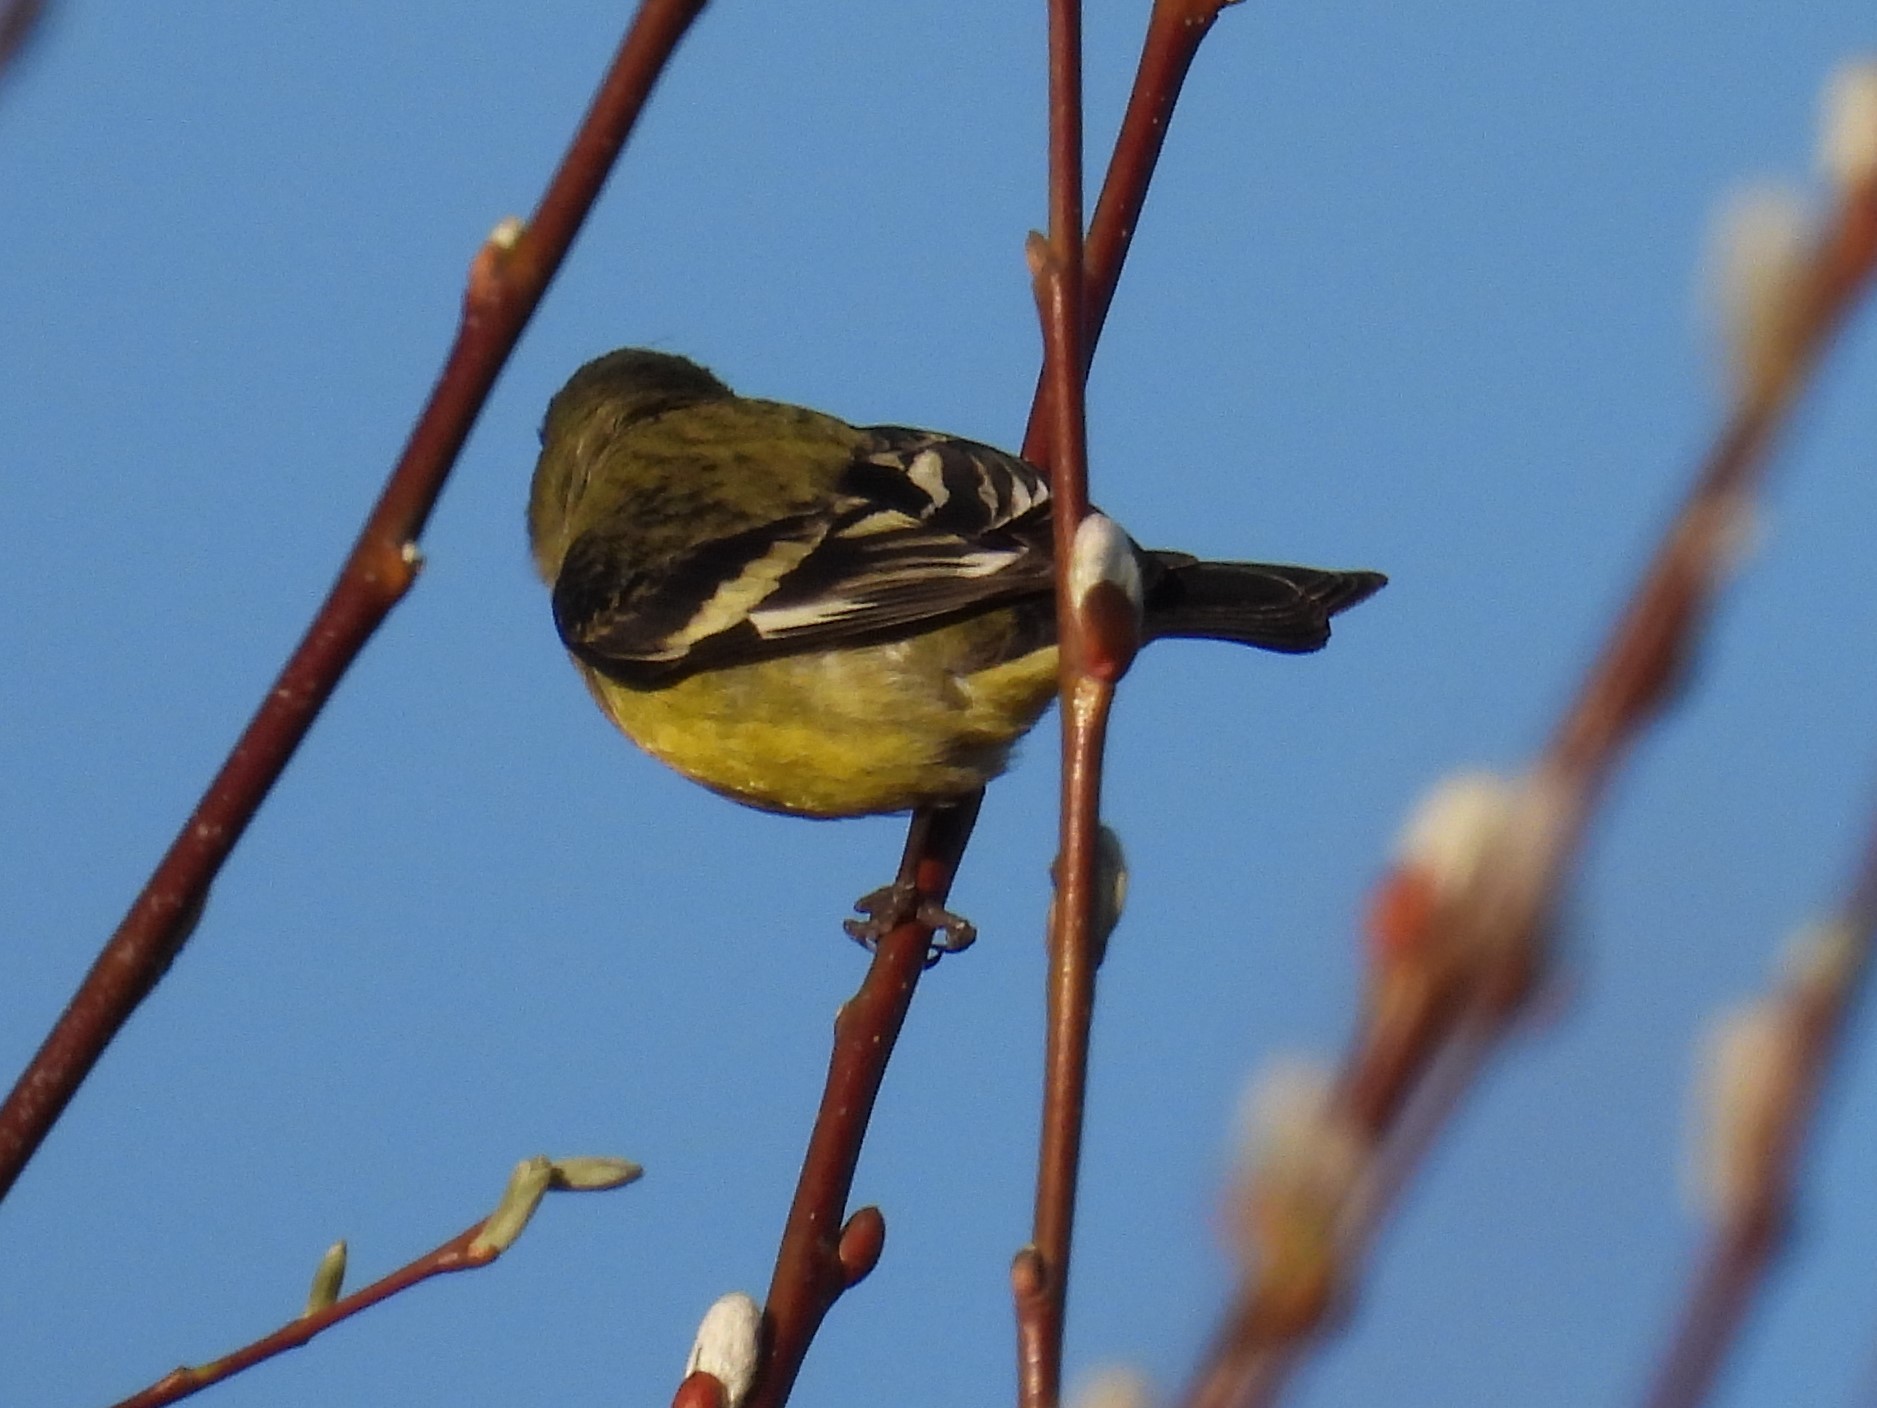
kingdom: Animalia
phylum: Chordata
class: Aves
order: Passeriformes
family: Fringillidae
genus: Spinus
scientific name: Spinus psaltria
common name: Lesser goldfinch
